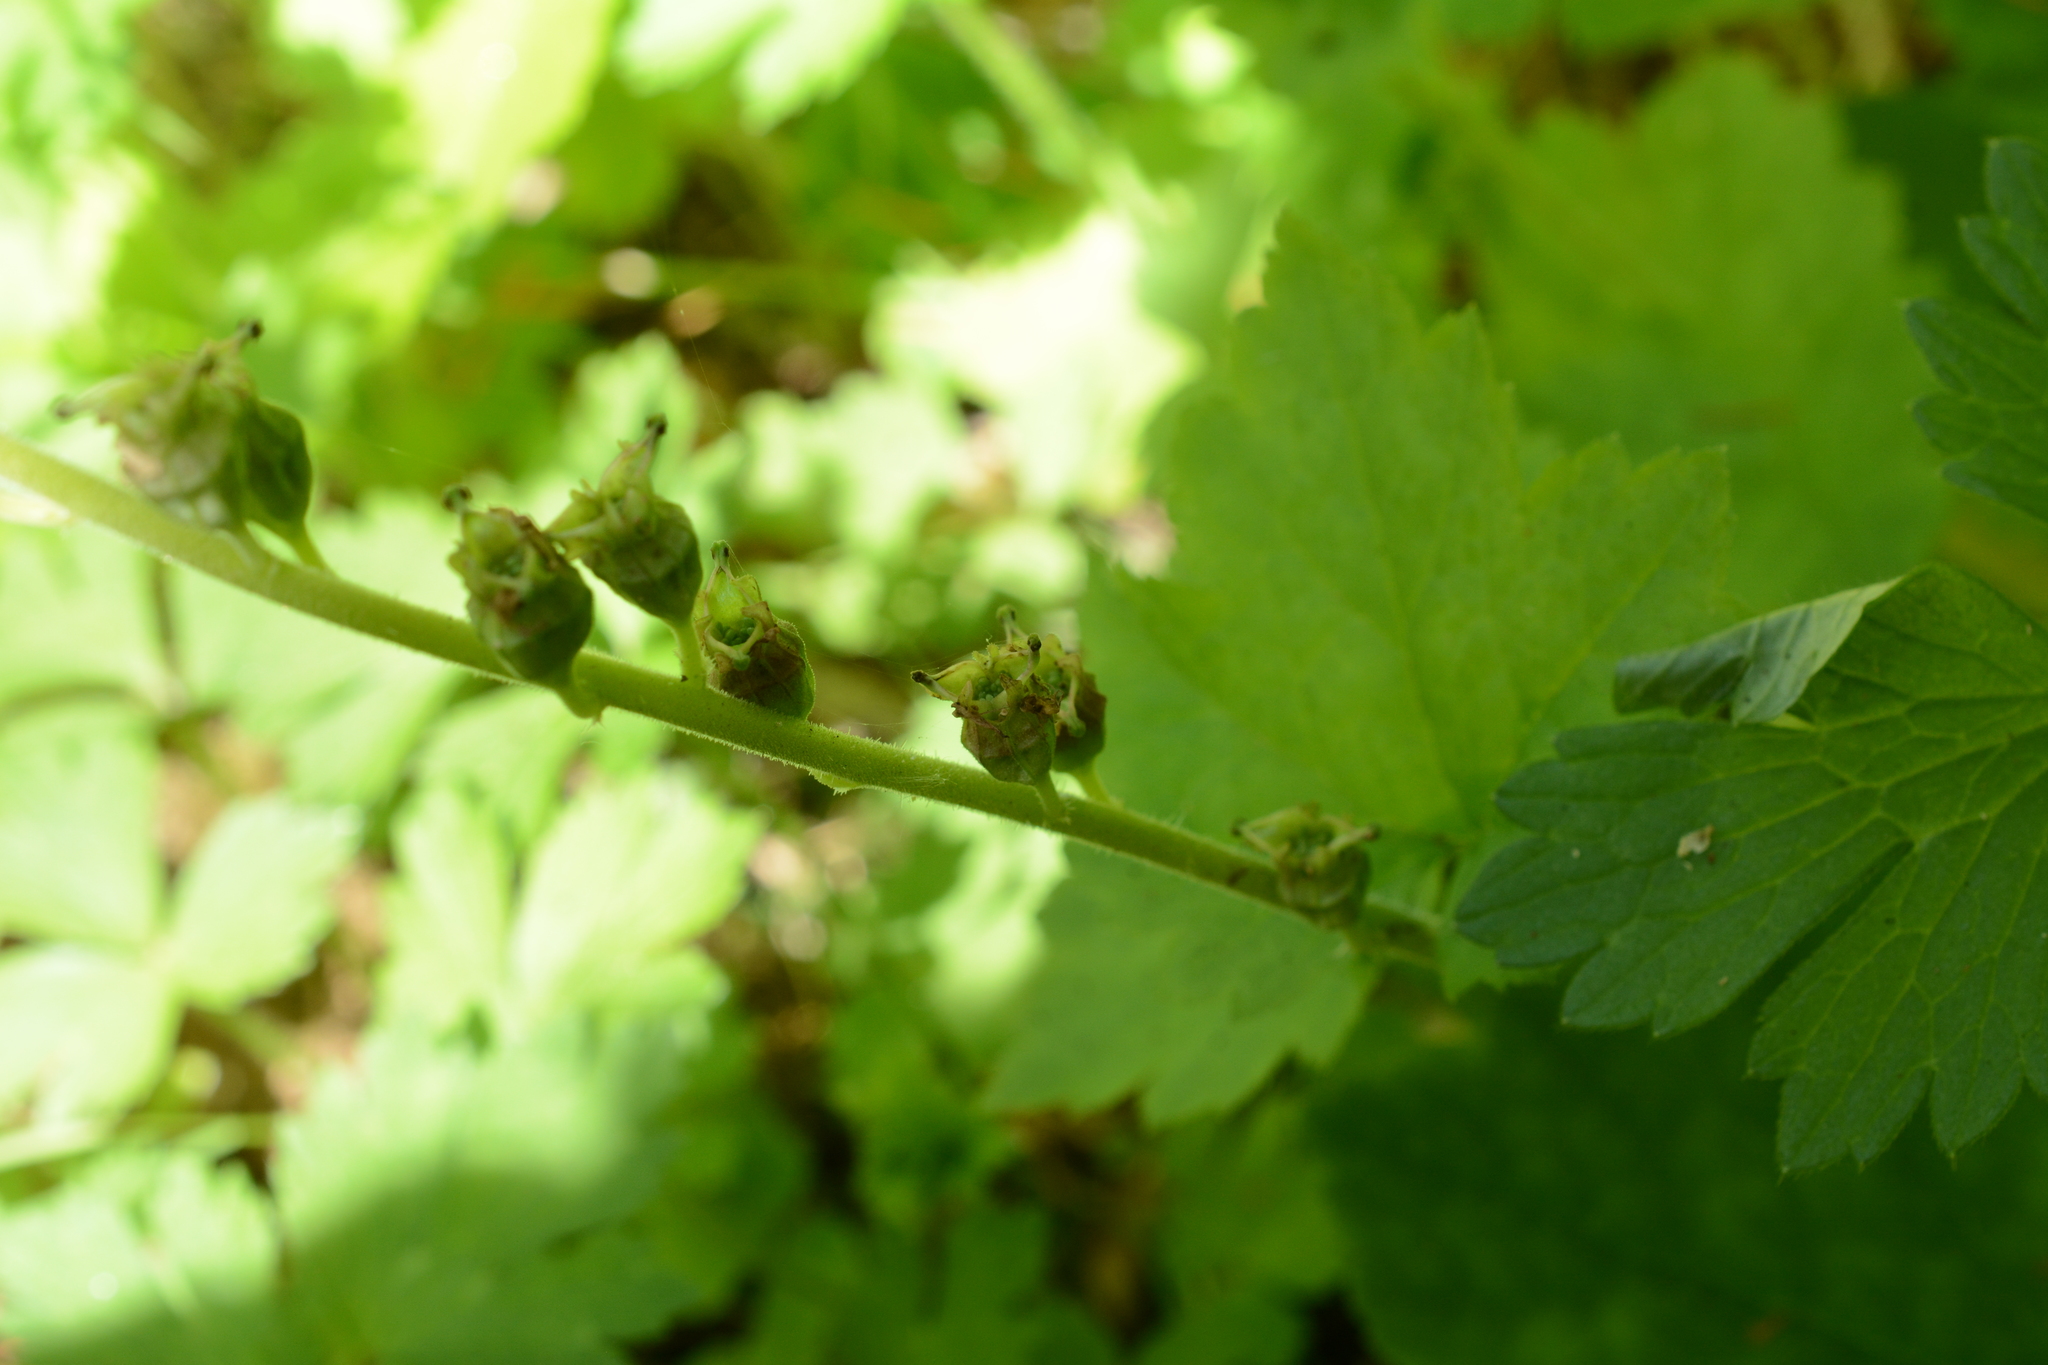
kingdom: Plantae
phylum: Tracheophyta
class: Magnoliopsida
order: Saxifragales
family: Saxifragaceae
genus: Tellima
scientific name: Tellima grandiflora
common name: Fringecups
